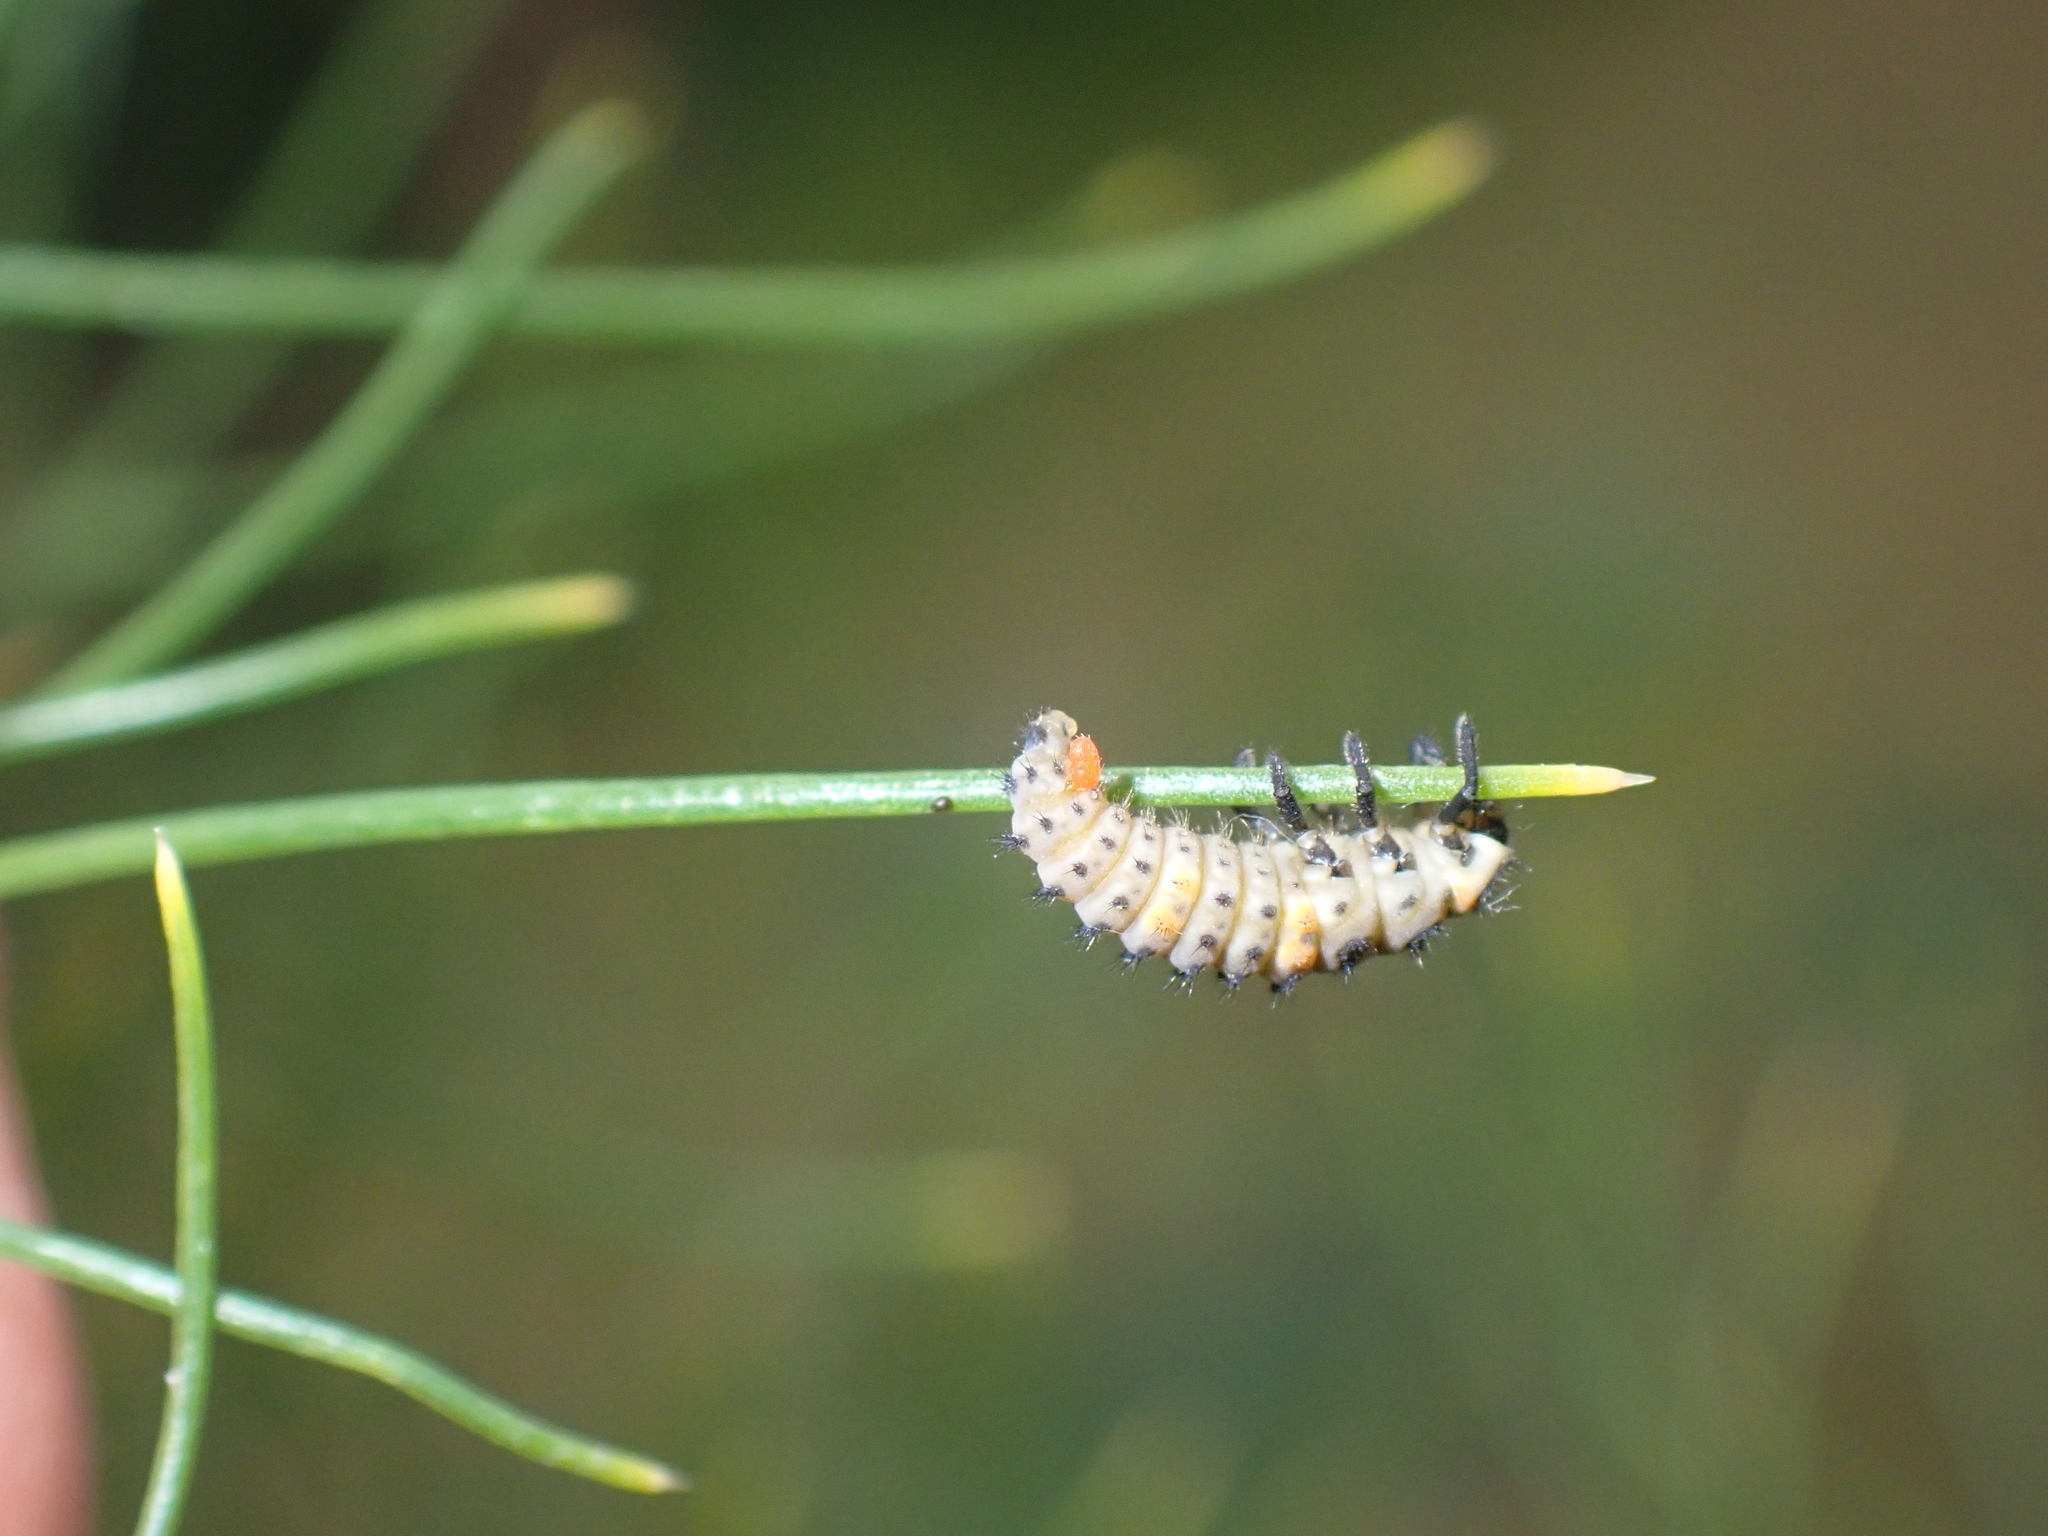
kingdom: Animalia
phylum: Arthropoda
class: Insecta
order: Coleoptera
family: Coccinellidae
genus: Coccinella
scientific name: Coccinella septempunctata
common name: Sevenspotted lady beetle
